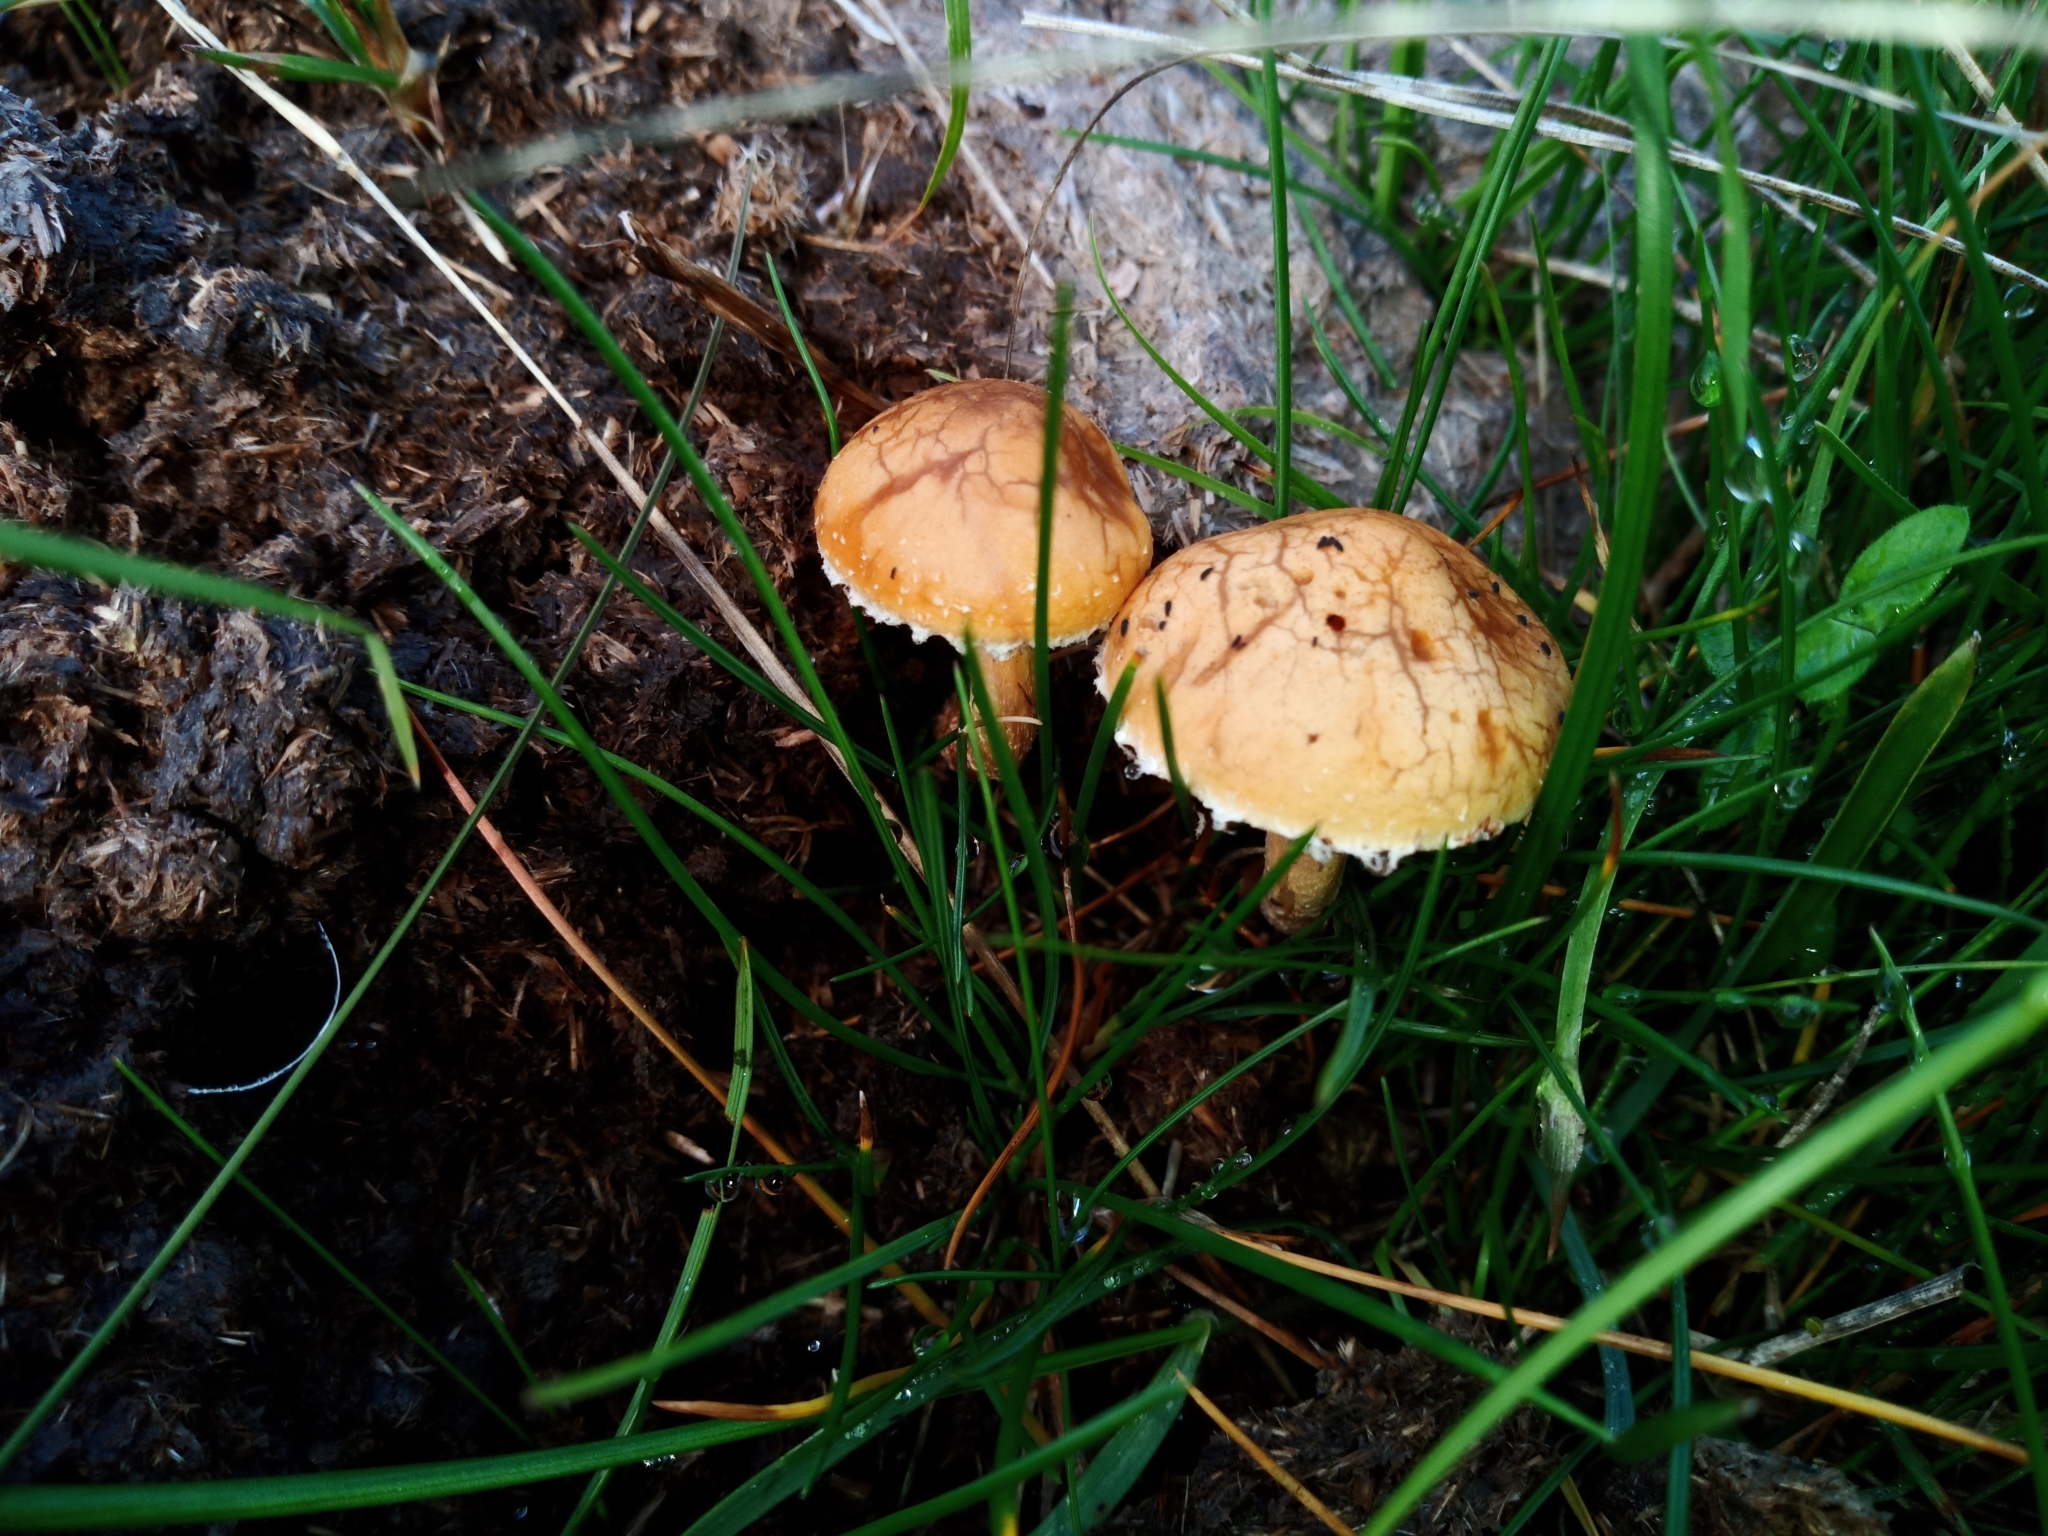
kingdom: Fungi
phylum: Basidiomycota
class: Agaricomycetes
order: Agaricales
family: Strophariaceae
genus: Agrocybe
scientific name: Agrocybe pediades
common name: Common fieldcap
